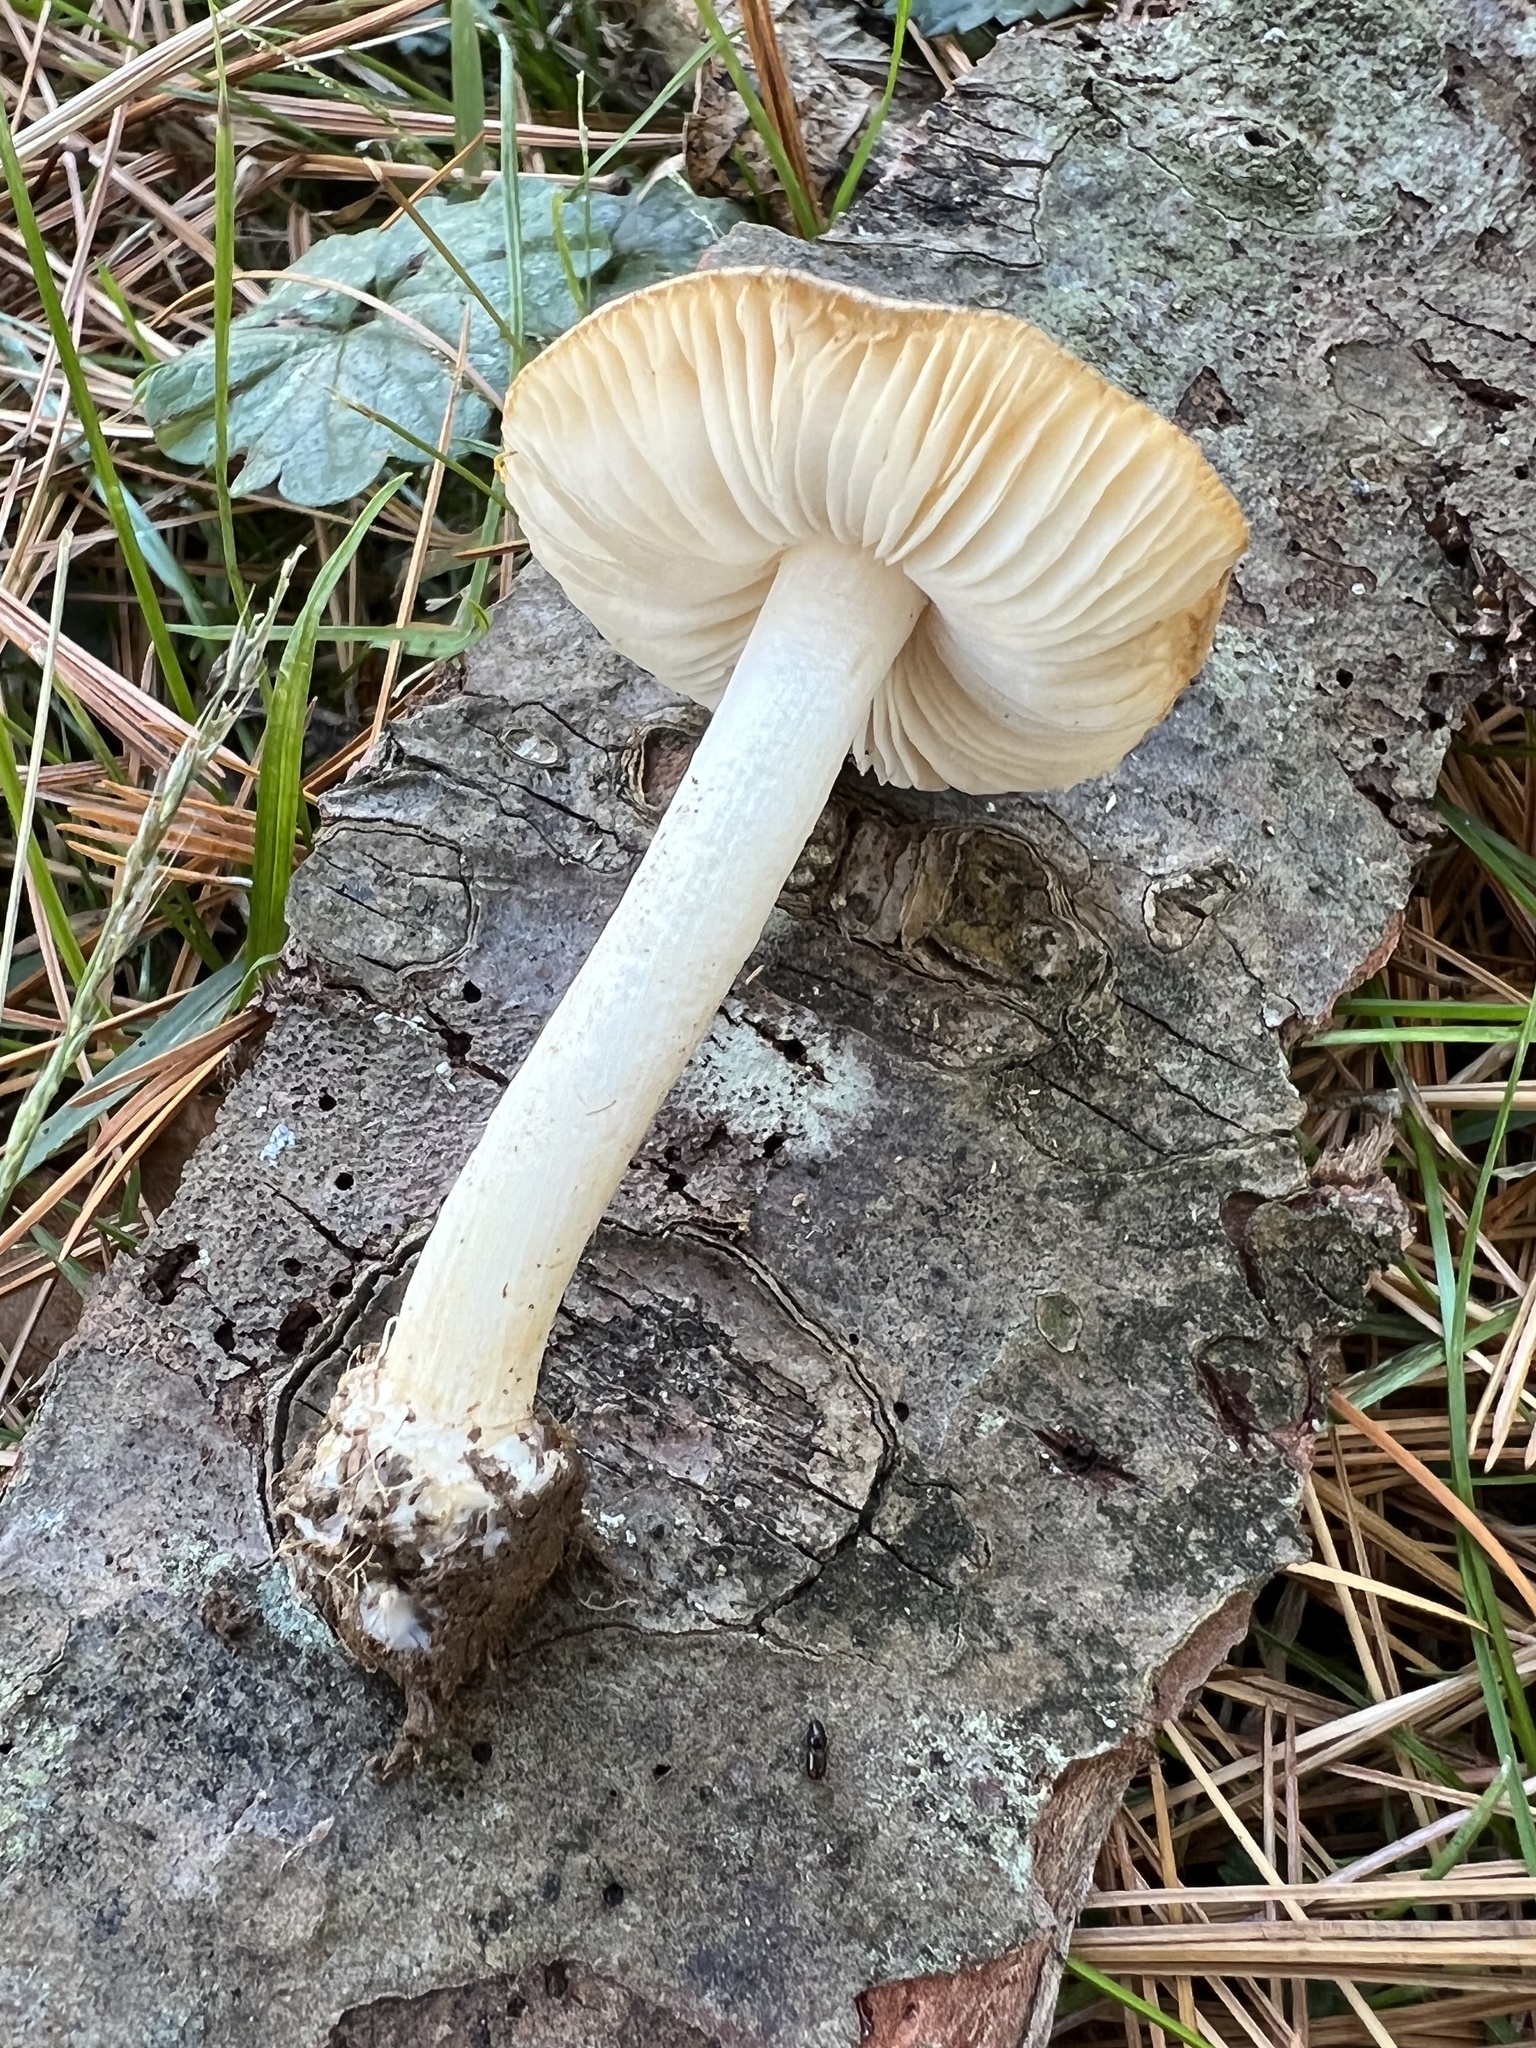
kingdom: Fungi
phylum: Basidiomycota
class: Agaricomycetes
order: Agaricales
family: Pluteaceae
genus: Volvariella
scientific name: Volvariella pusilla
